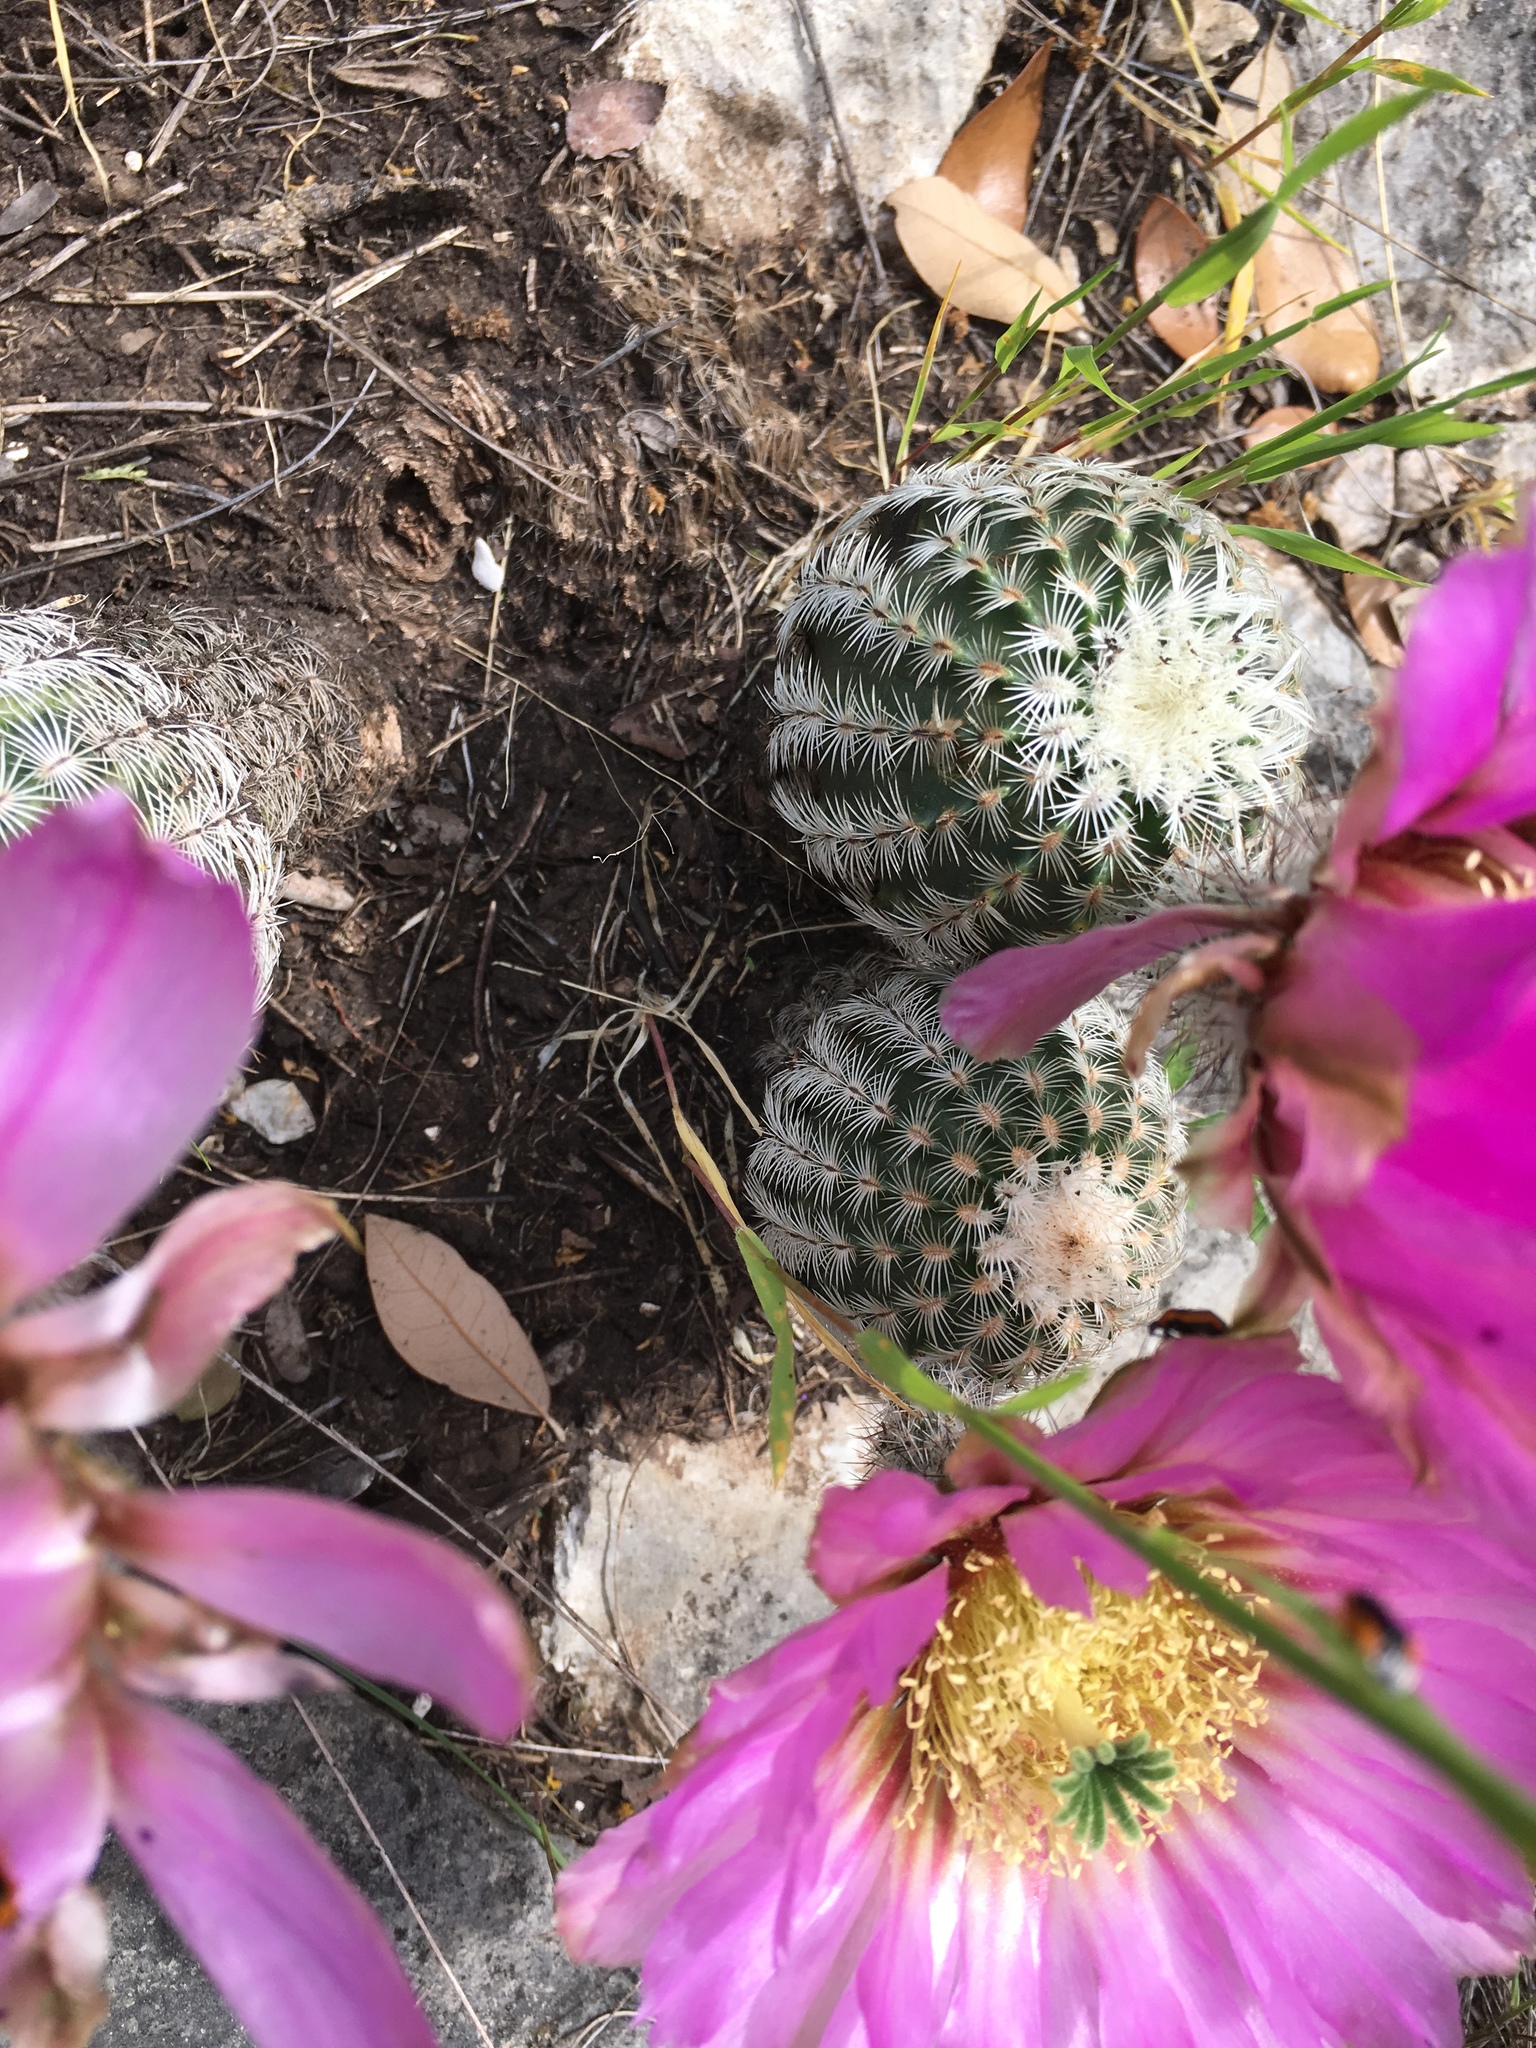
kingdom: Plantae
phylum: Tracheophyta
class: Magnoliopsida
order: Caryophyllales
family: Cactaceae
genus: Echinocereus
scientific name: Echinocereus reichenbachii
